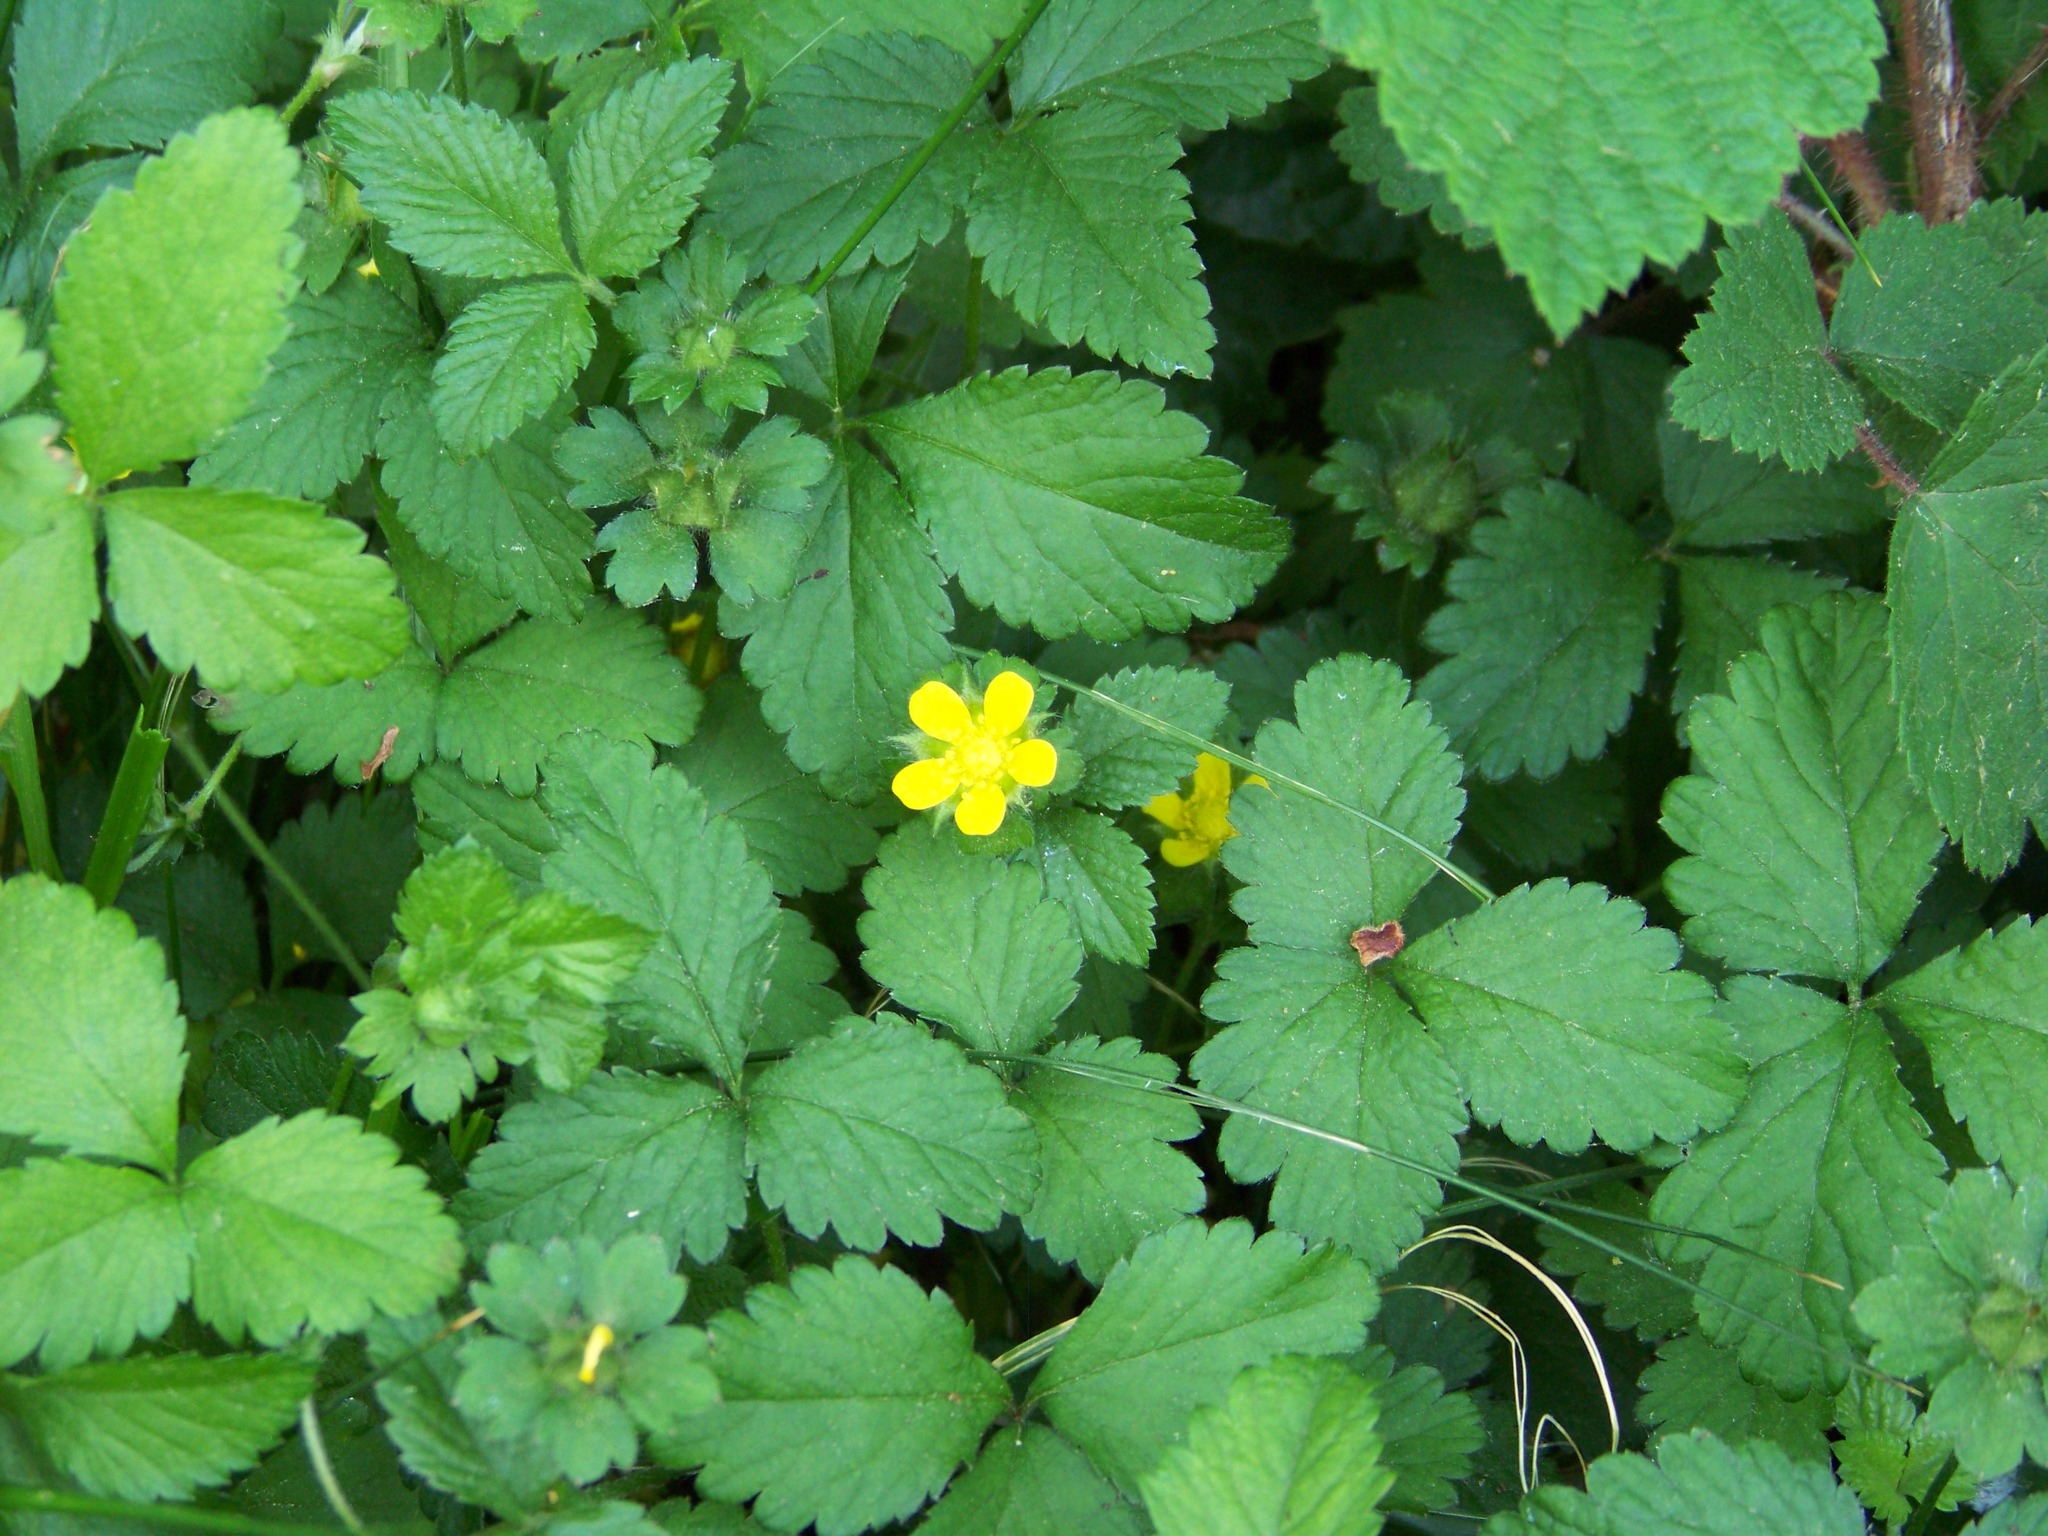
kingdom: Plantae
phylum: Tracheophyta
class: Magnoliopsida
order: Rosales
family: Rosaceae
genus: Potentilla
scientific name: Potentilla indica
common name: Yellow-flowered strawberry
